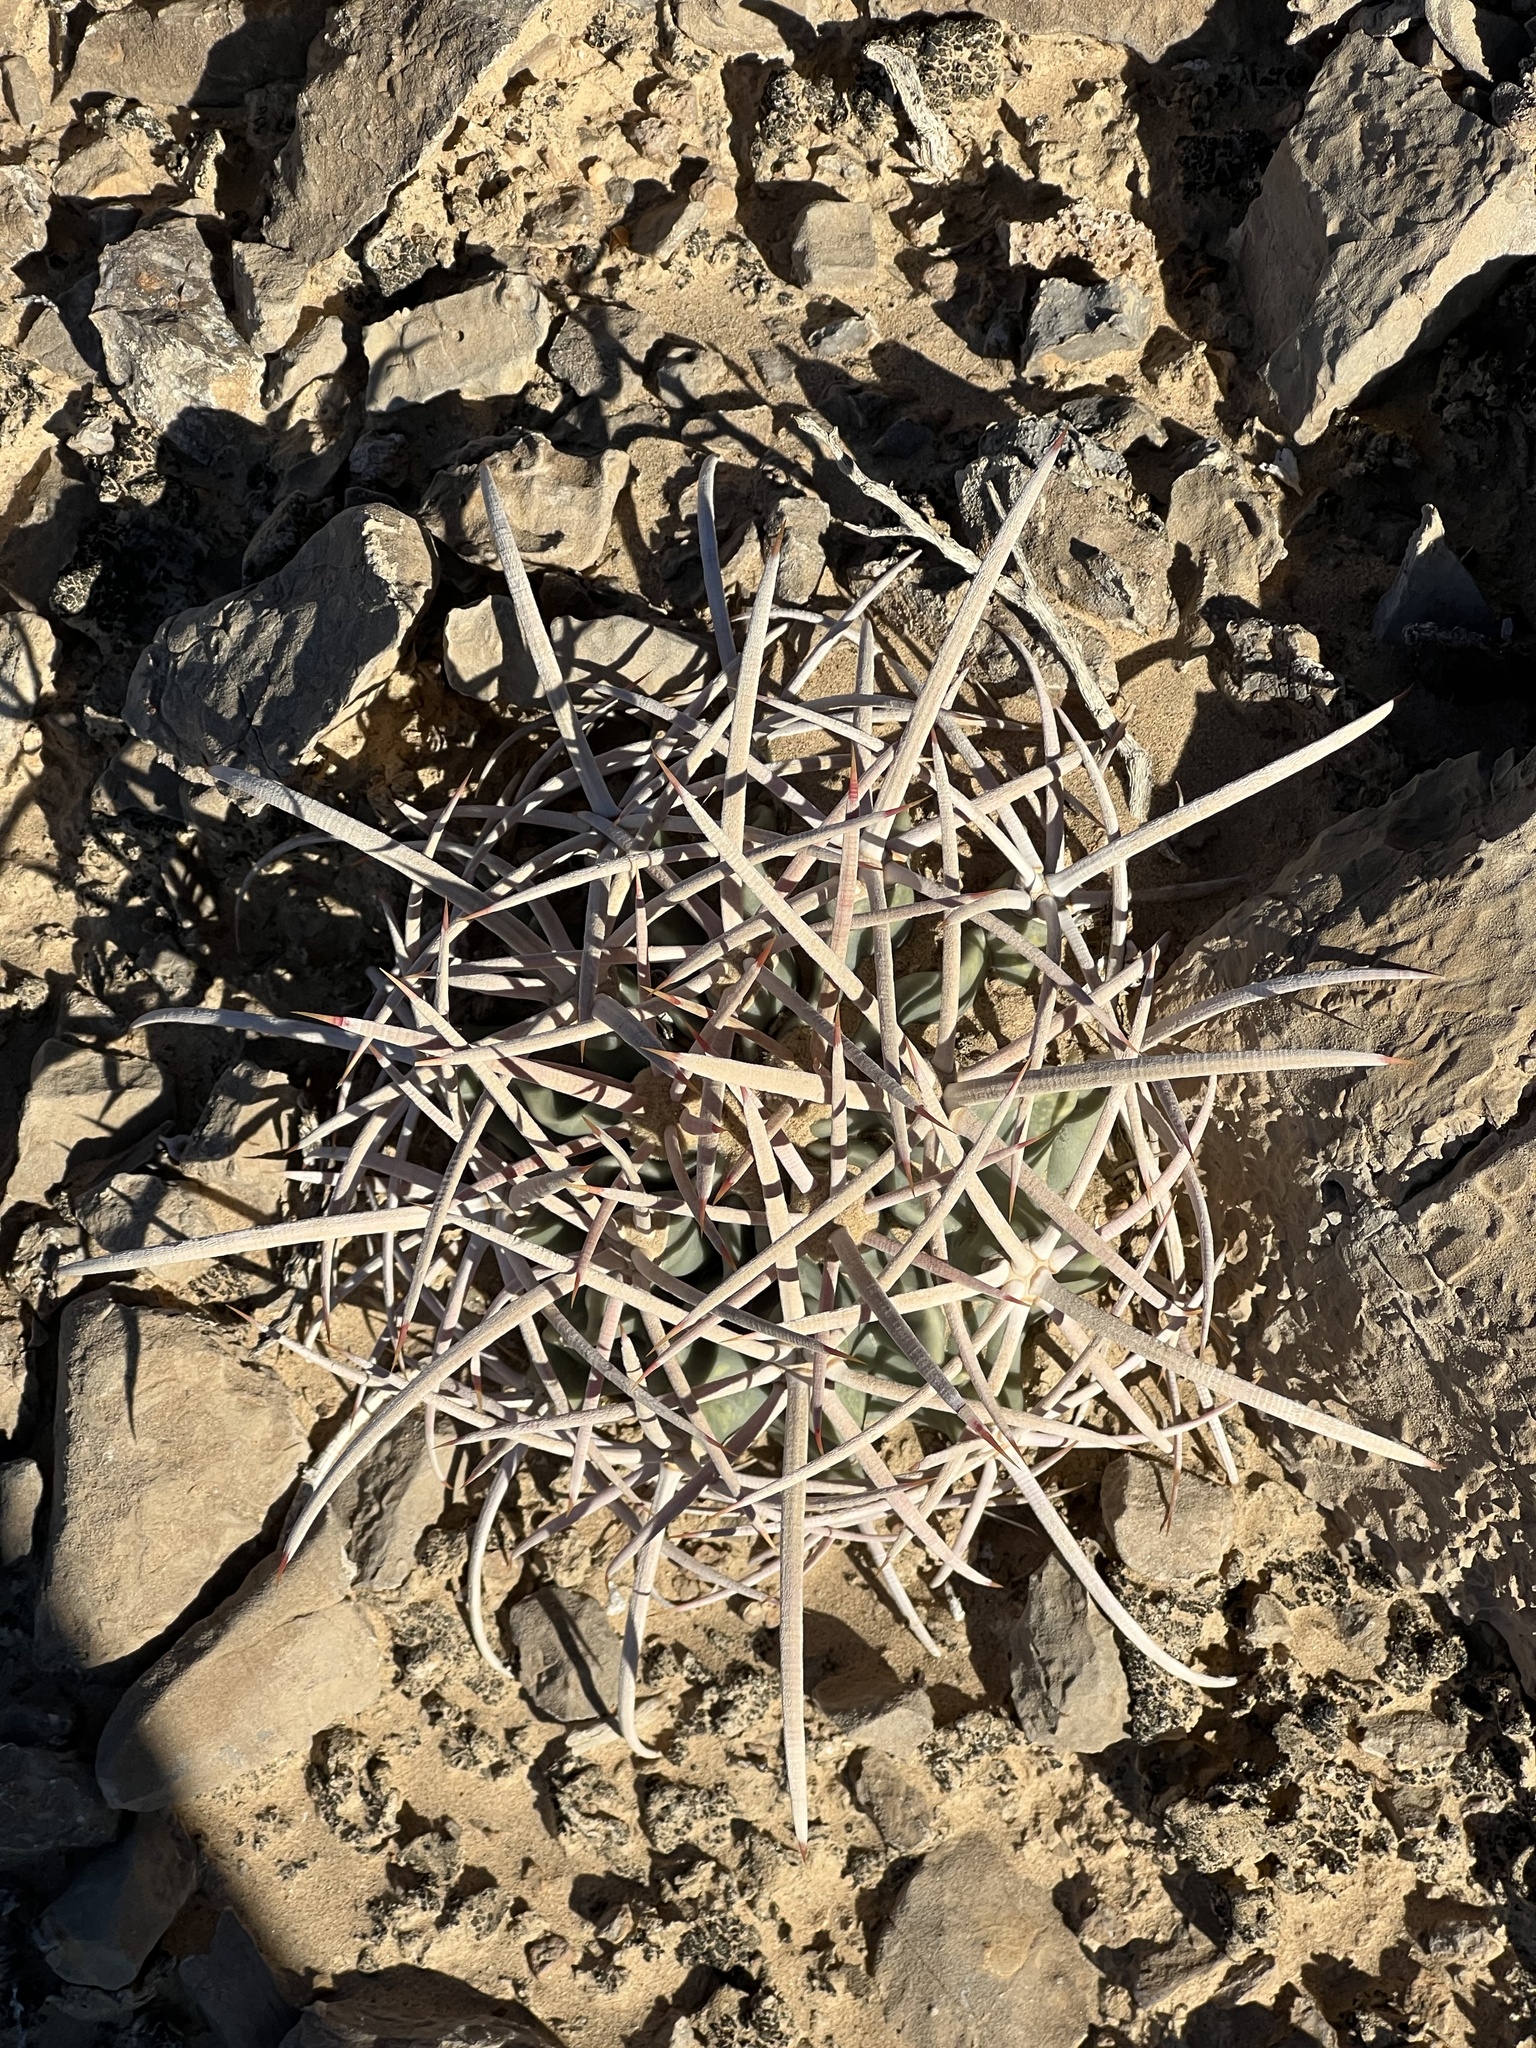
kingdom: Plantae
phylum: Tracheophyta
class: Magnoliopsida
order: Caryophyllales
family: Cactaceae
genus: Echinocactus
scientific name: Echinocactus polycephalus
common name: Cottontop cactus
